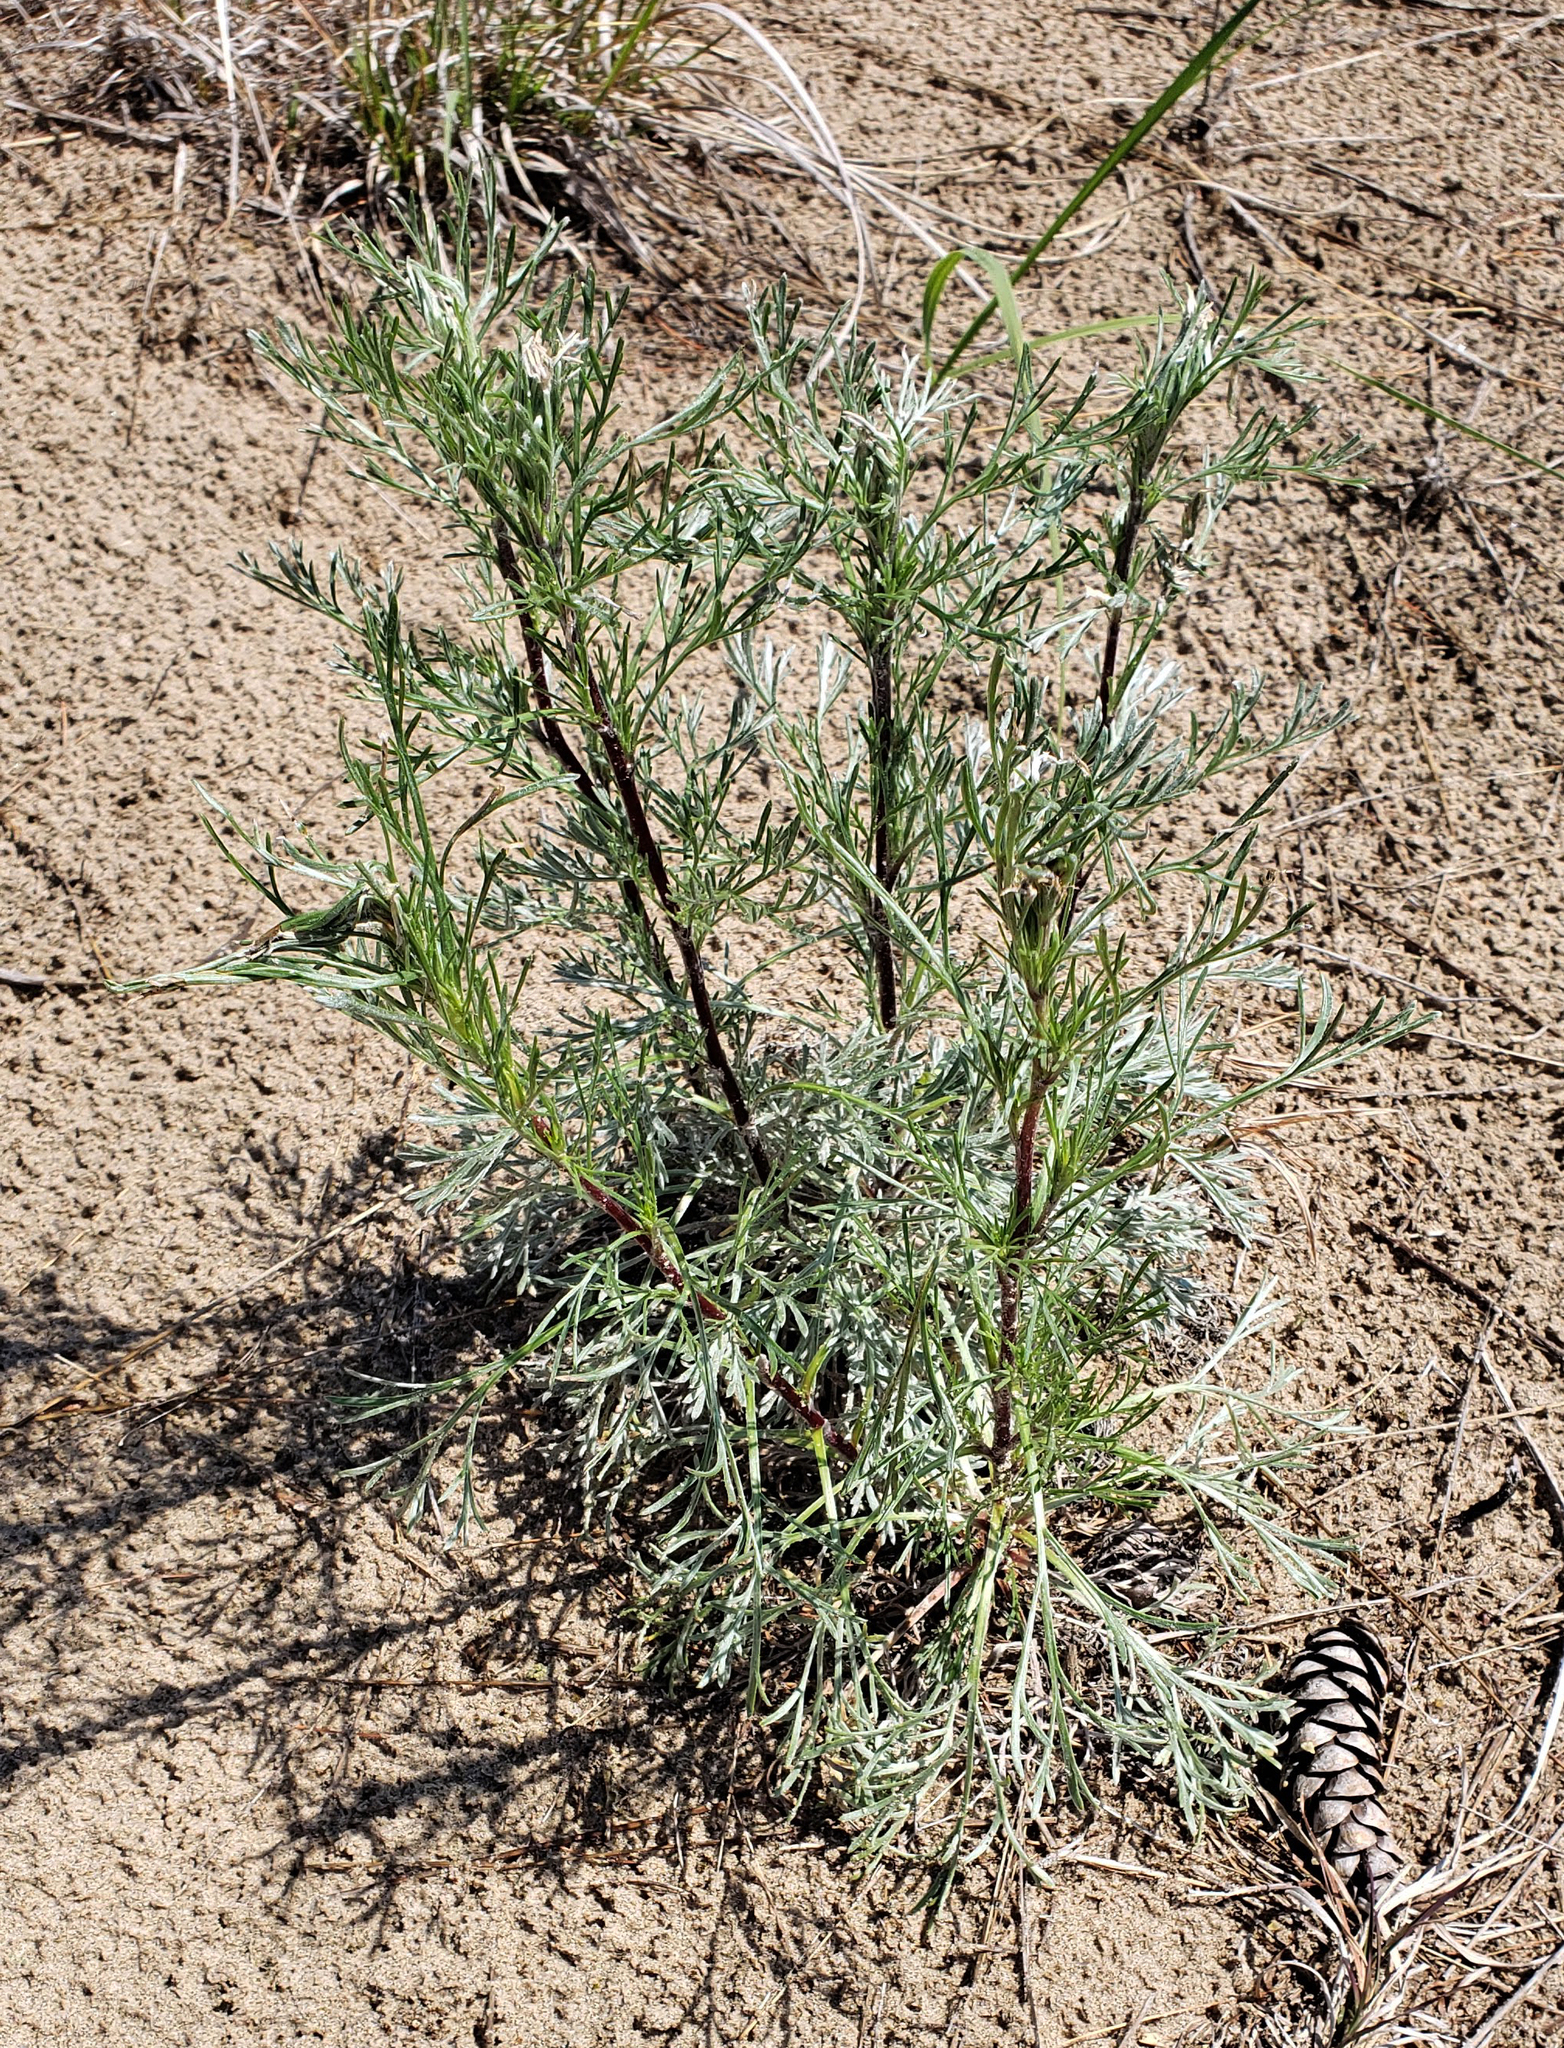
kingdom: Plantae
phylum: Tracheophyta
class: Magnoliopsida
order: Asterales
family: Asteraceae
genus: Artemisia
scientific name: Artemisia campestris
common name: Field wormwood
